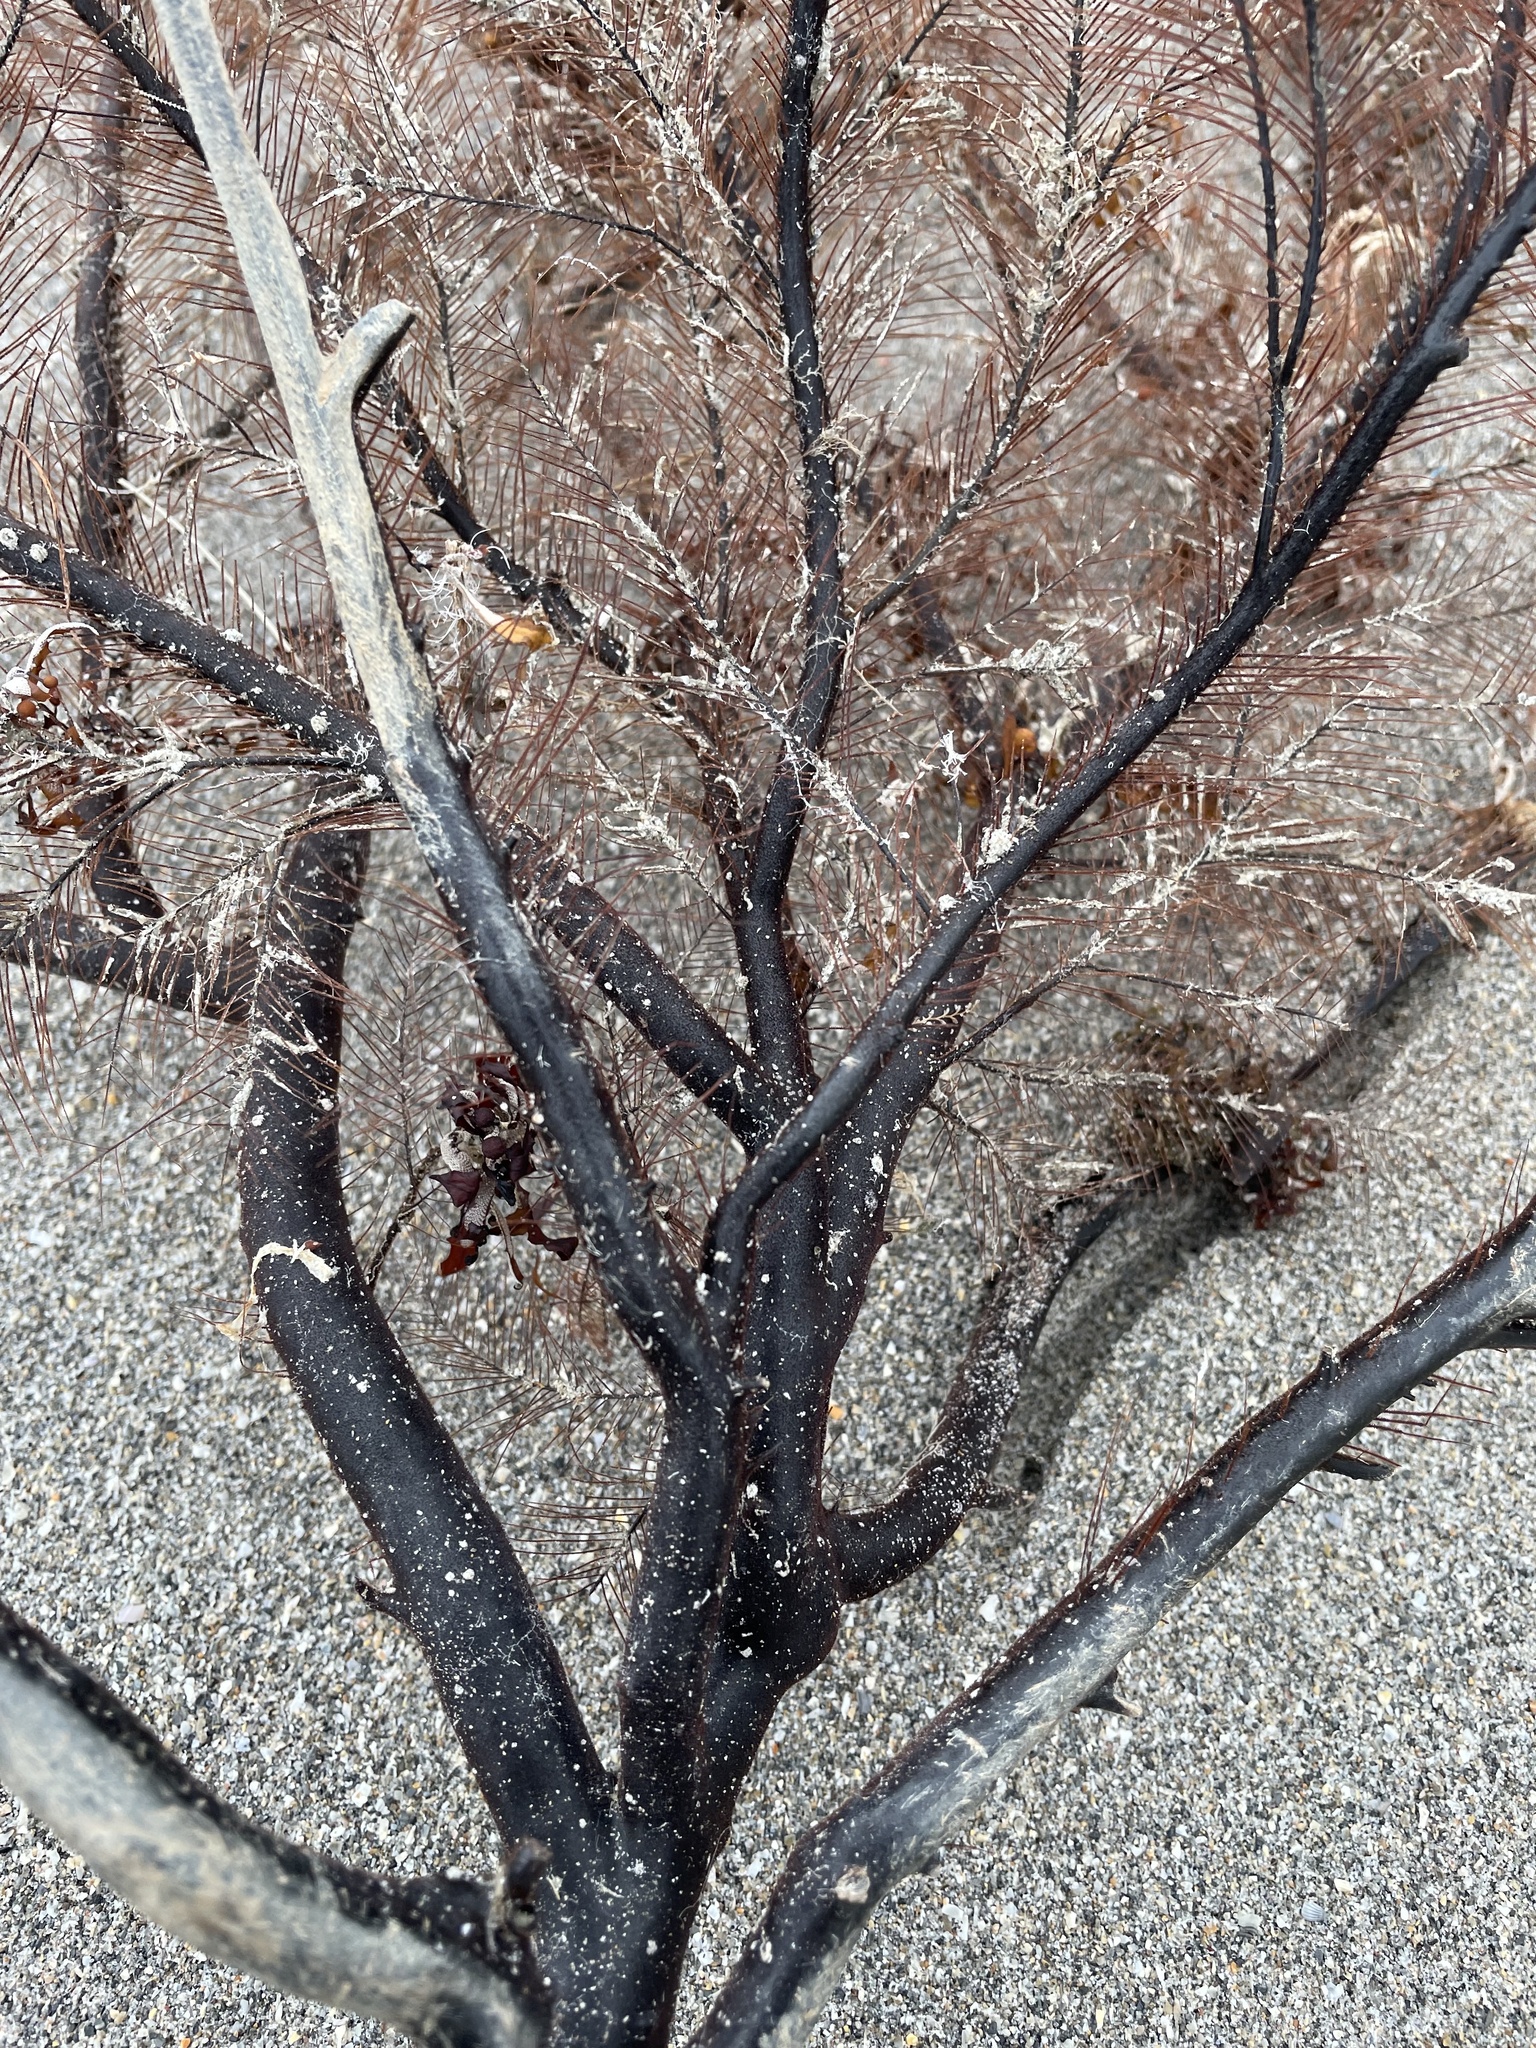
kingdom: Animalia
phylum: Cnidaria
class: Anthozoa
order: Antipatharia
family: Myriopathidae
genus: Plumapathes
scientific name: Plumapathes pennacea
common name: Feather black coral
